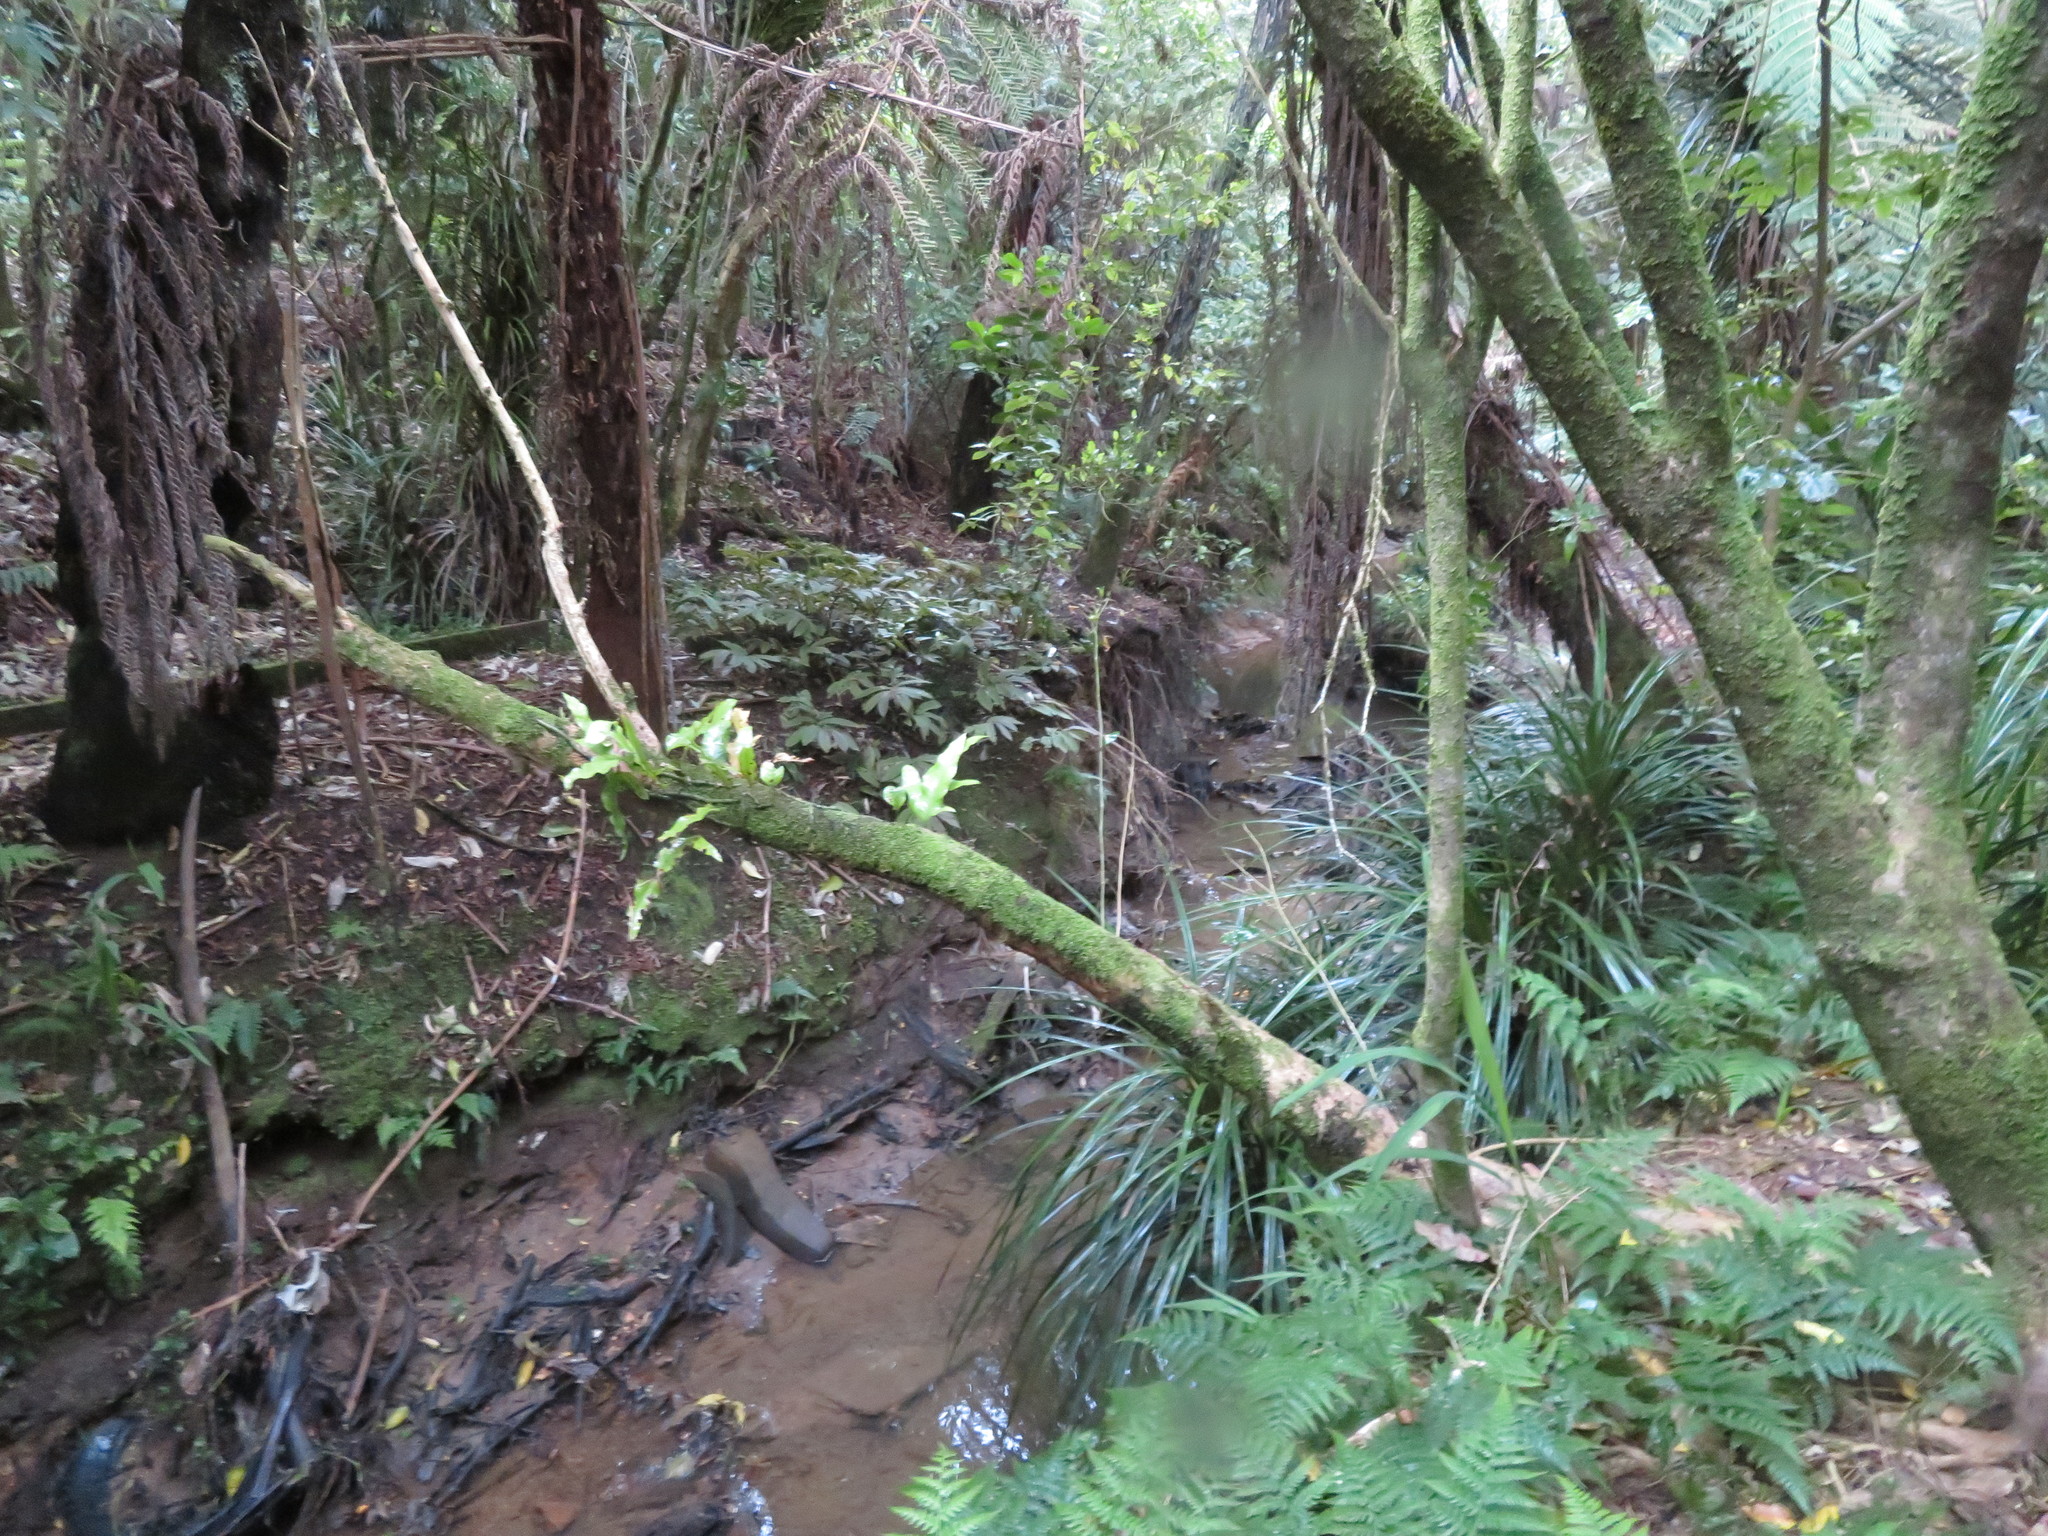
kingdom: Plantae
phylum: Tracheophyta
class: Polypodiopsida
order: Polypodiales
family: Polypodiaceae
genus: Lecanopteris
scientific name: Lecanopteris pustulata
